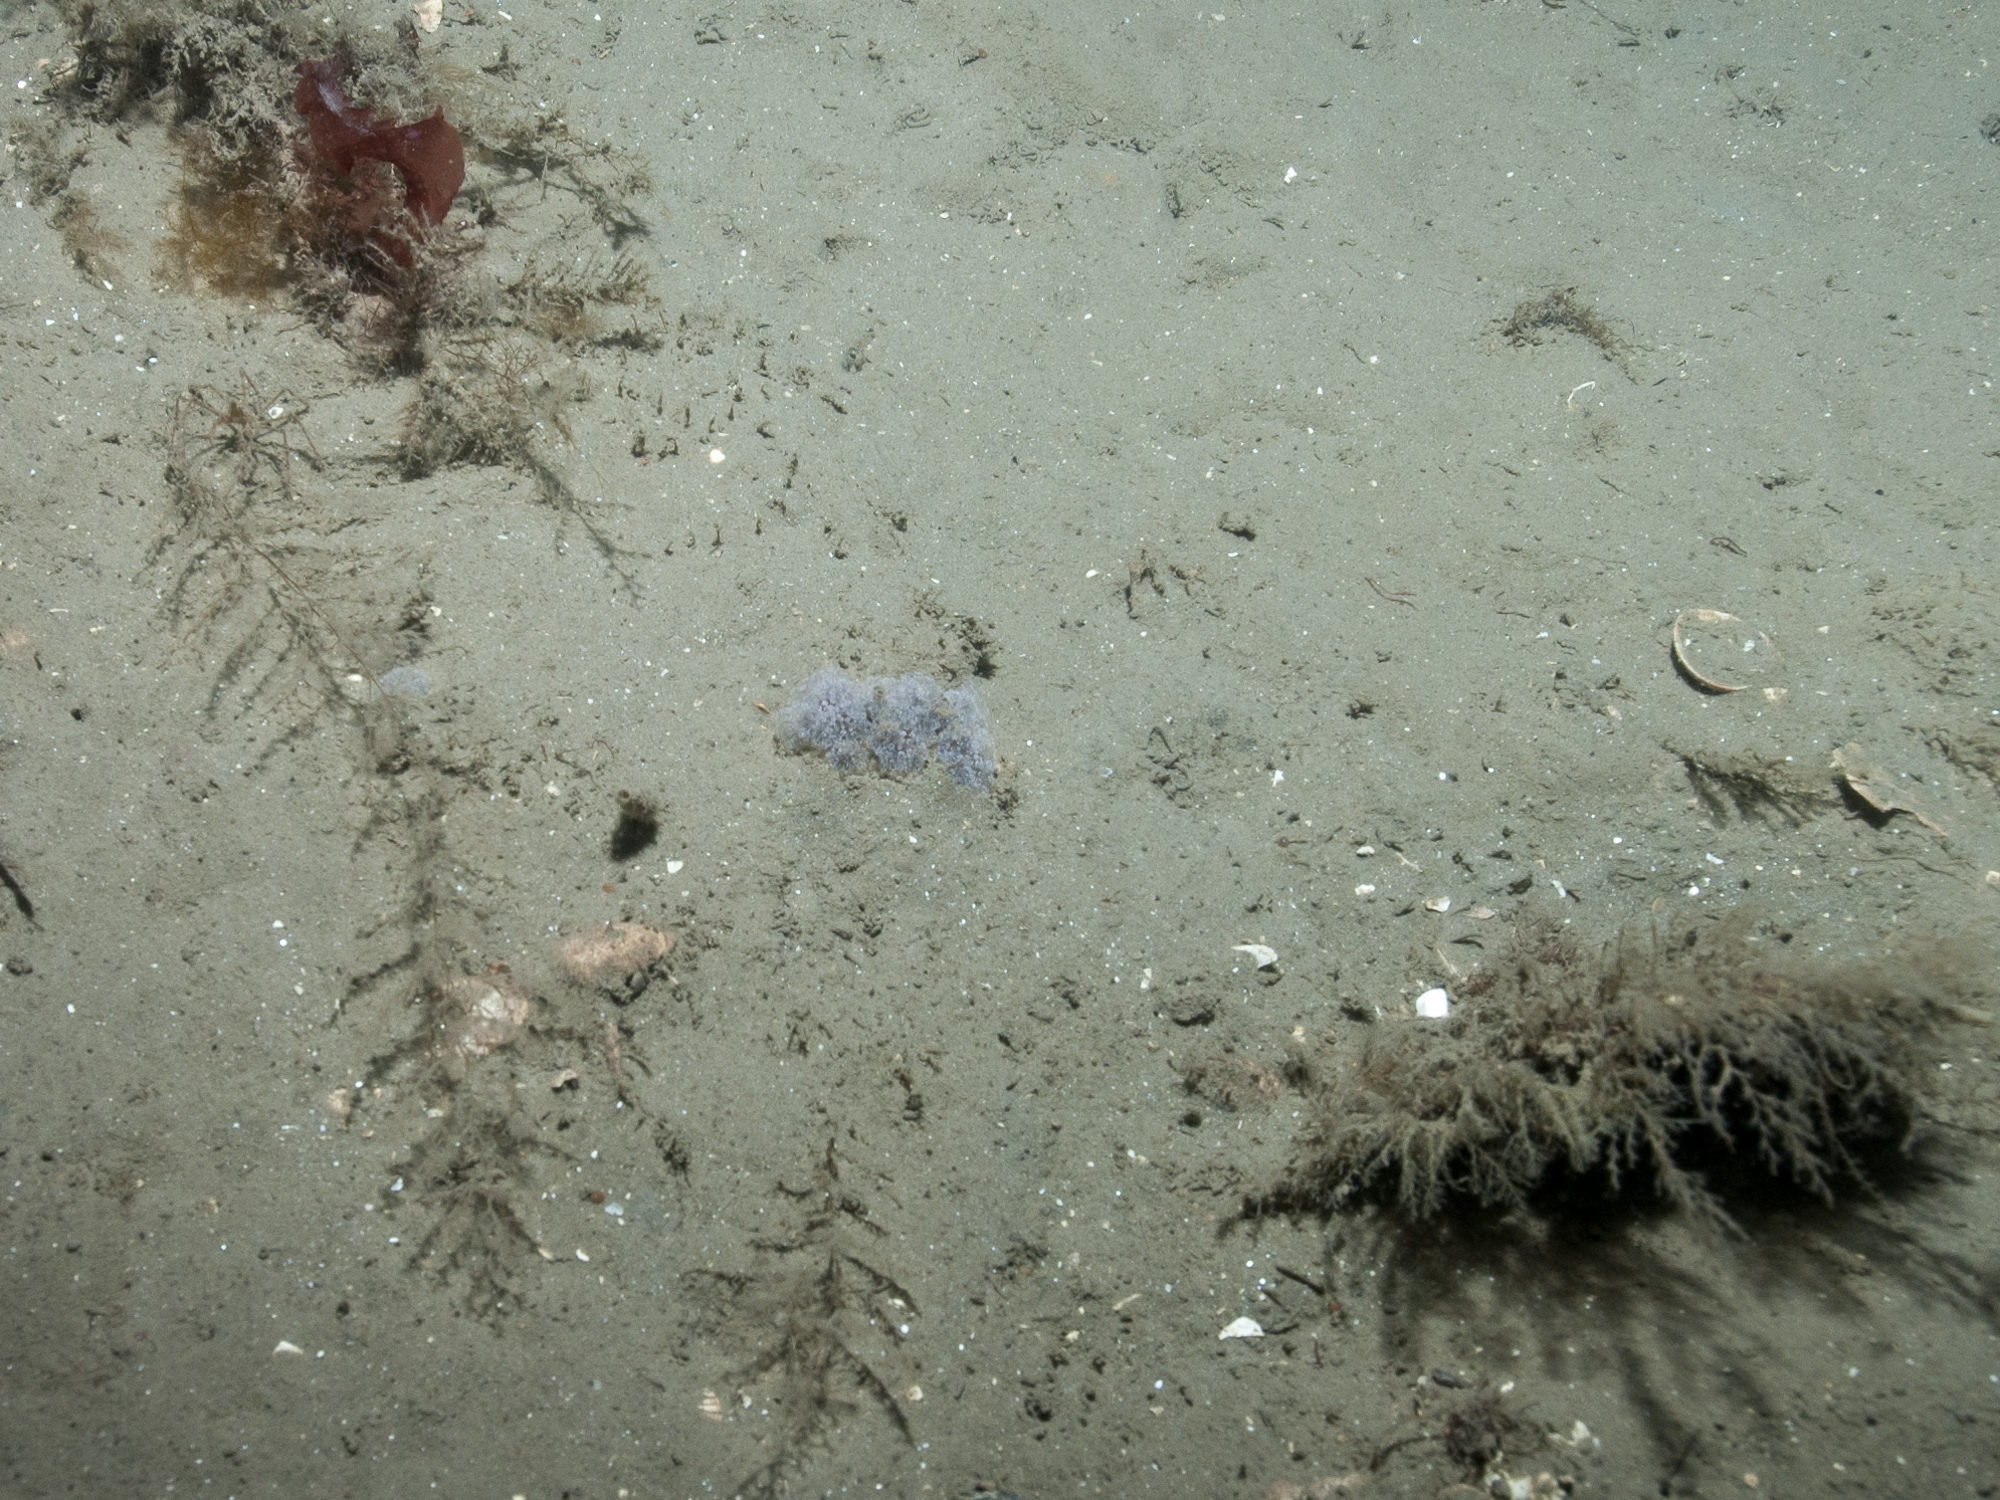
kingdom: Animalia
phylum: Cnidaria
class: Hydrozoa
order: Leptothecata
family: Campanulariidae
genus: Obelia
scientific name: Obelia longissima
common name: Hydroid
